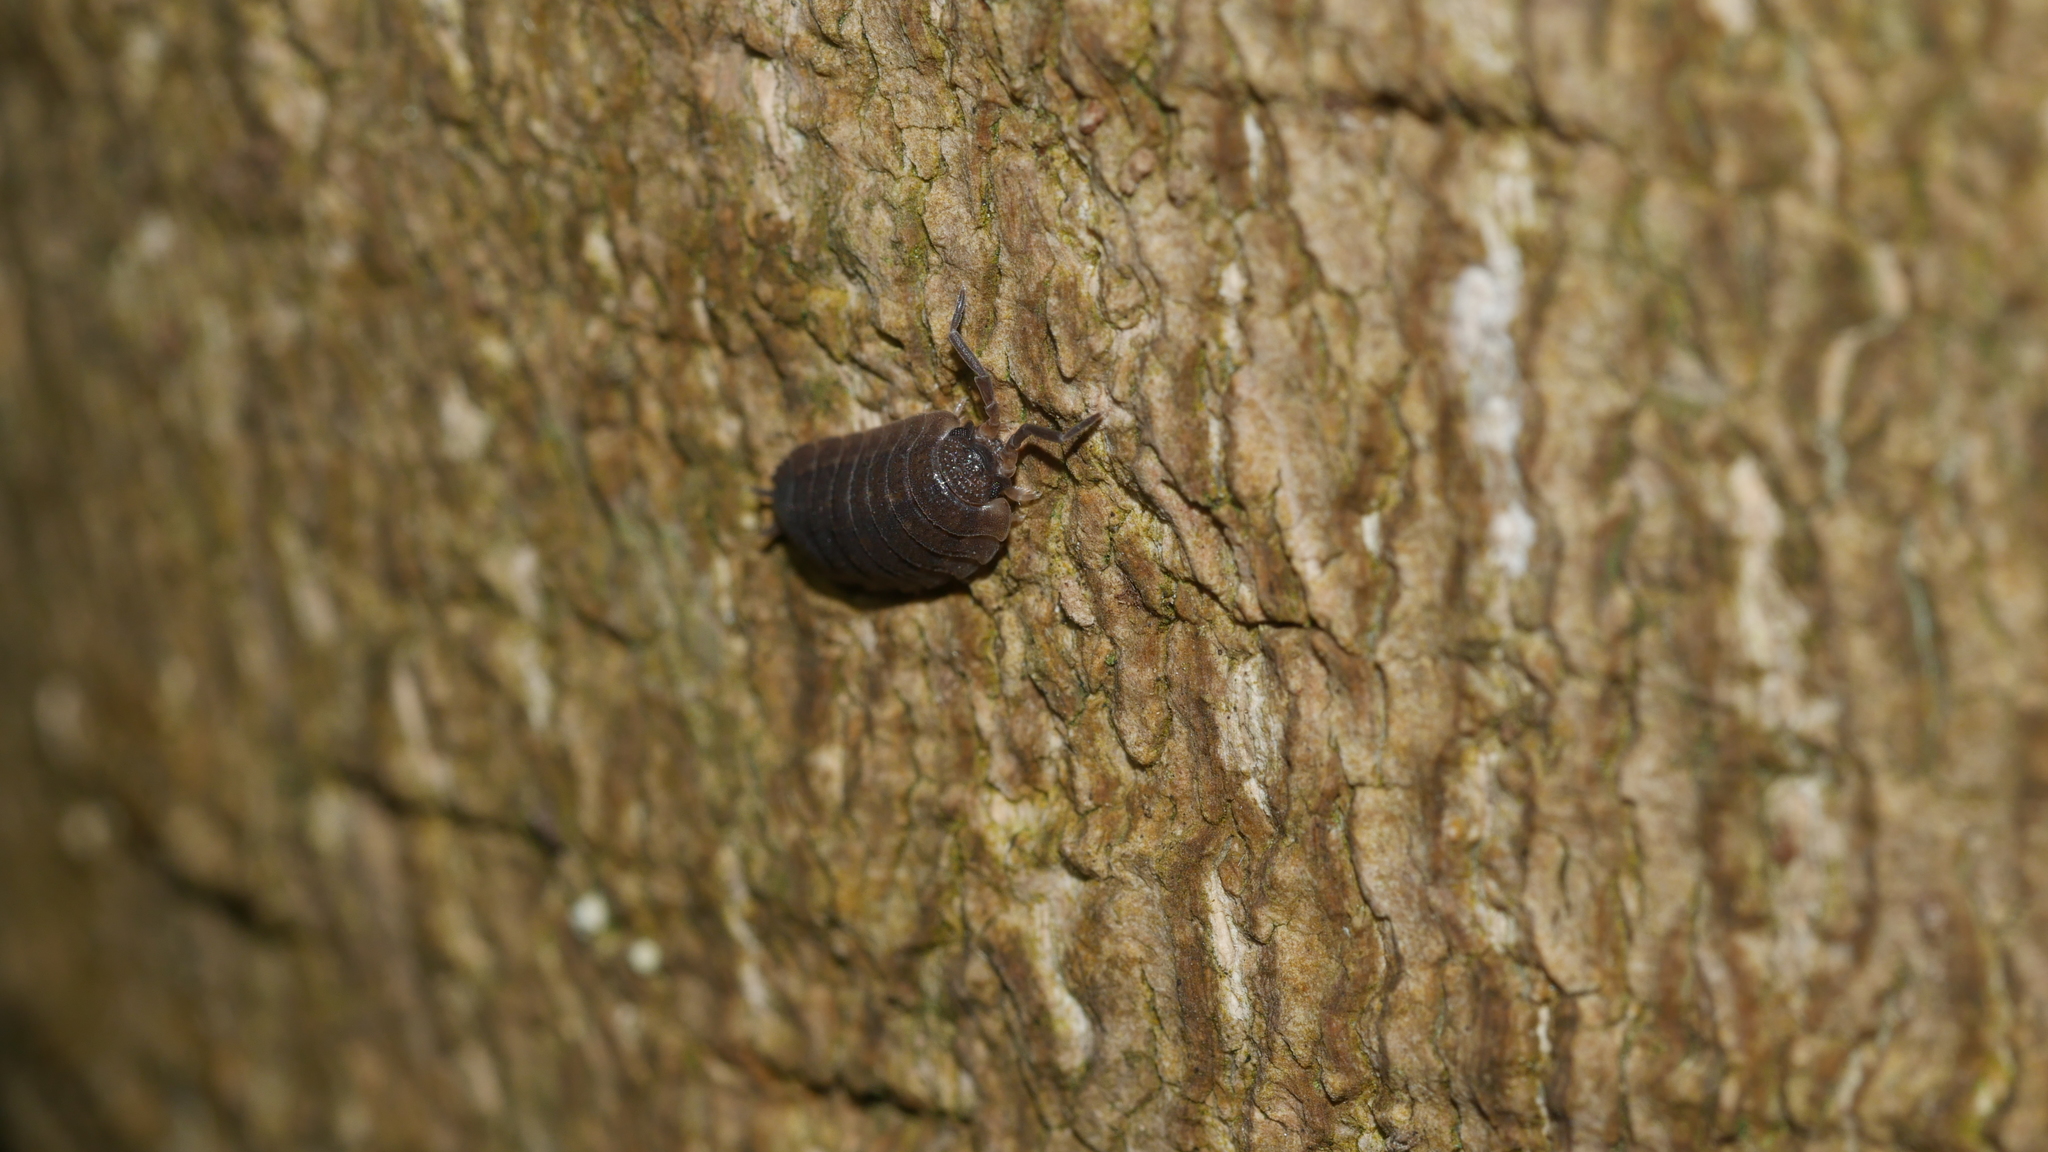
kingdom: Animalia
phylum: Arthropoda
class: Malacostraca
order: Isopoda
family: Porcellionidae
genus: Porcellio
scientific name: Porcellio scaber
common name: Common rough woodlouse
